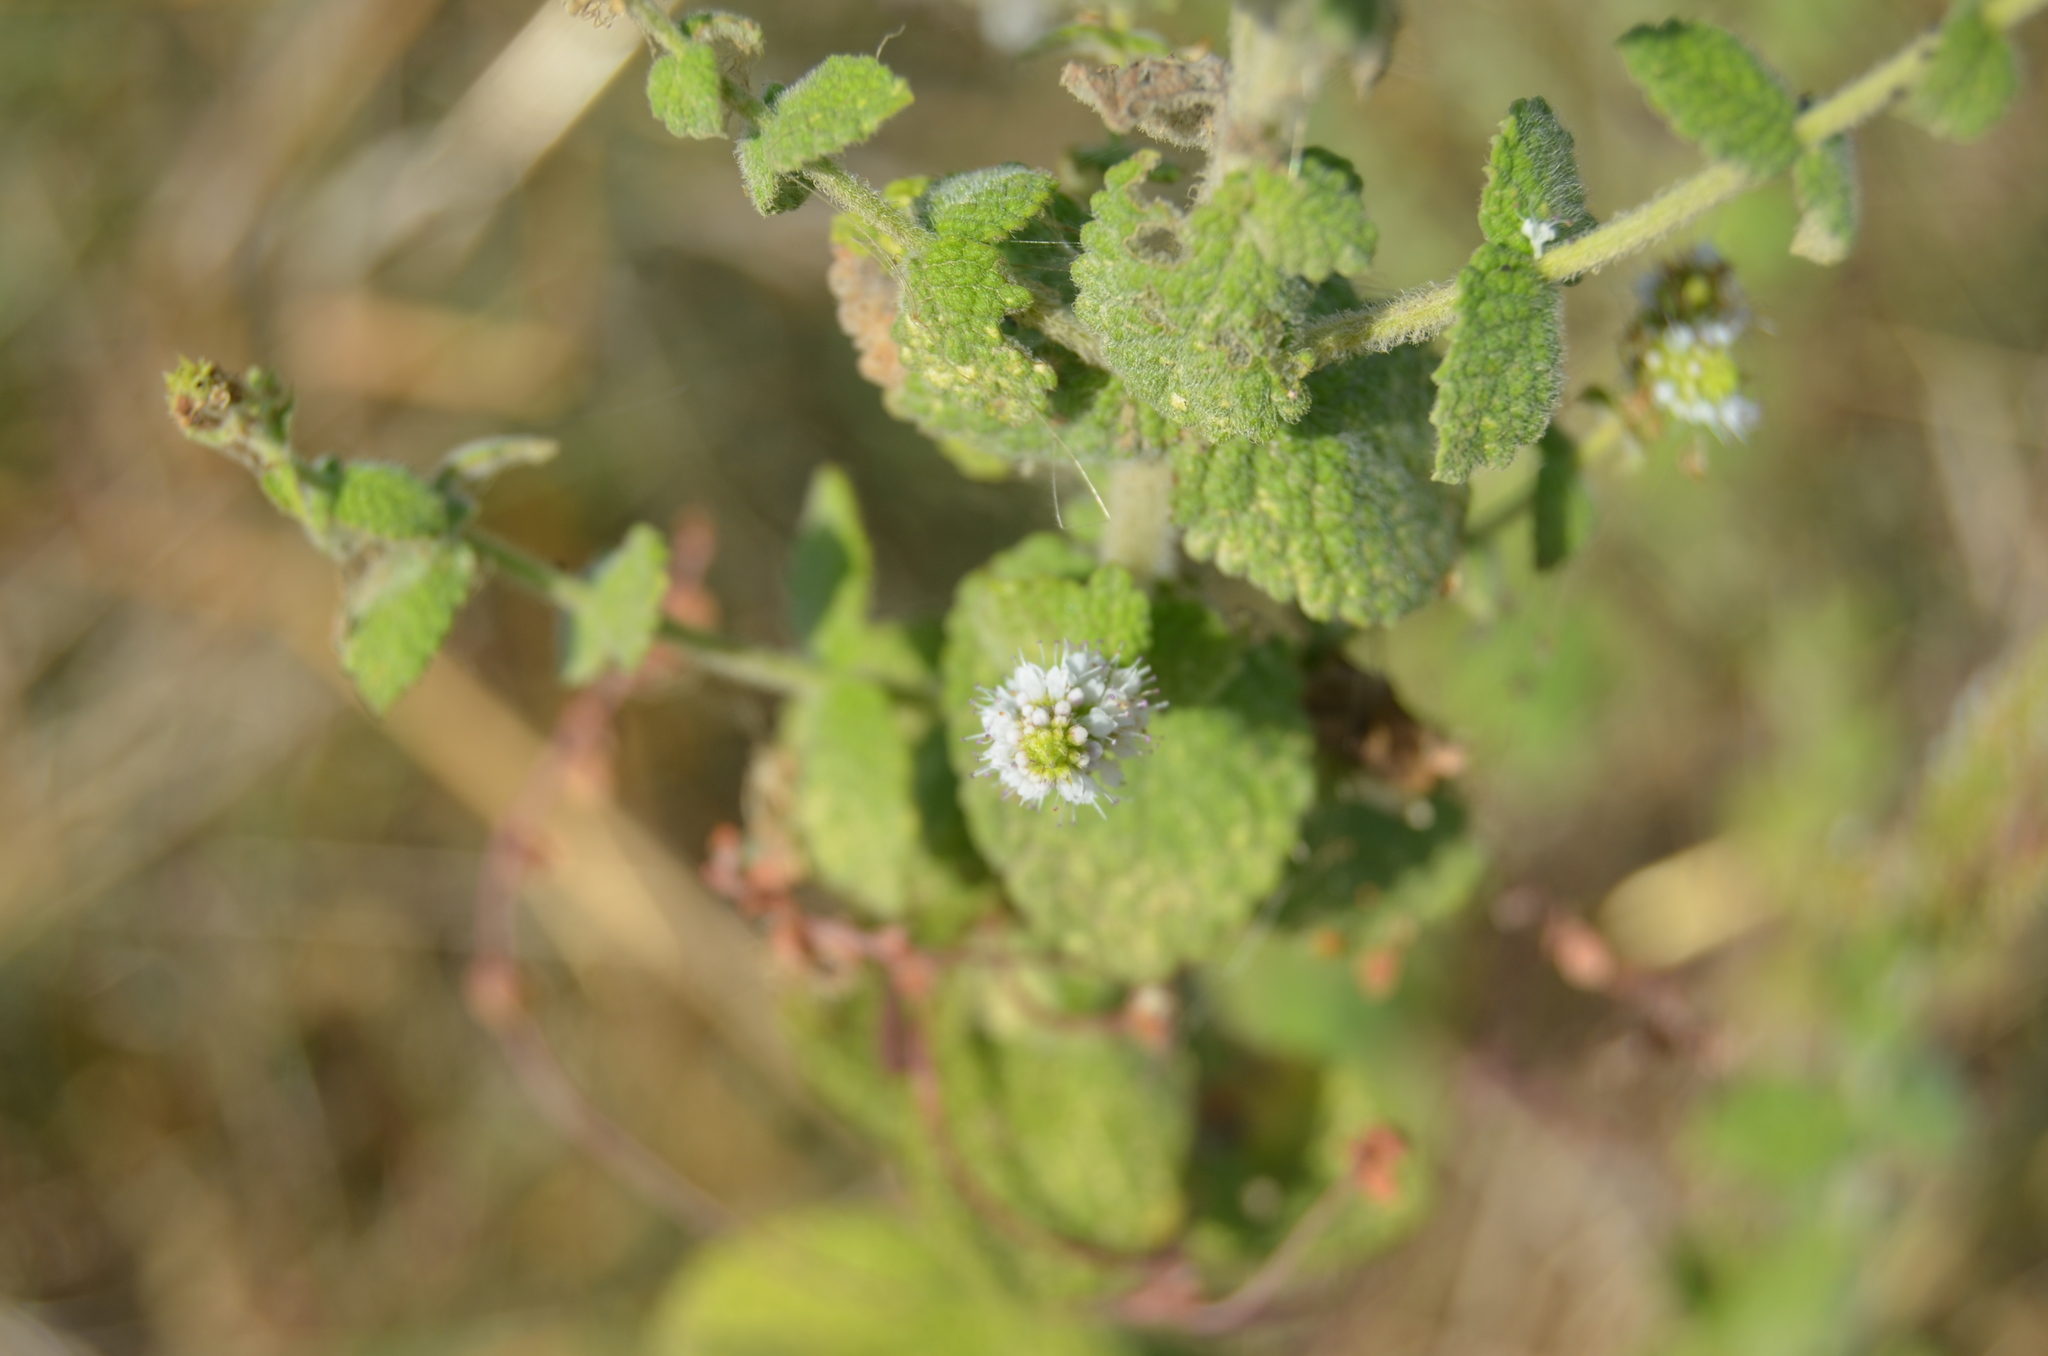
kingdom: Plantae
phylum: Tracheophyta
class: Magnoliopsida
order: Lamiales
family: Lamiaceae
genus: Mentha
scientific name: Mentha suaveolens
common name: Apple mint
